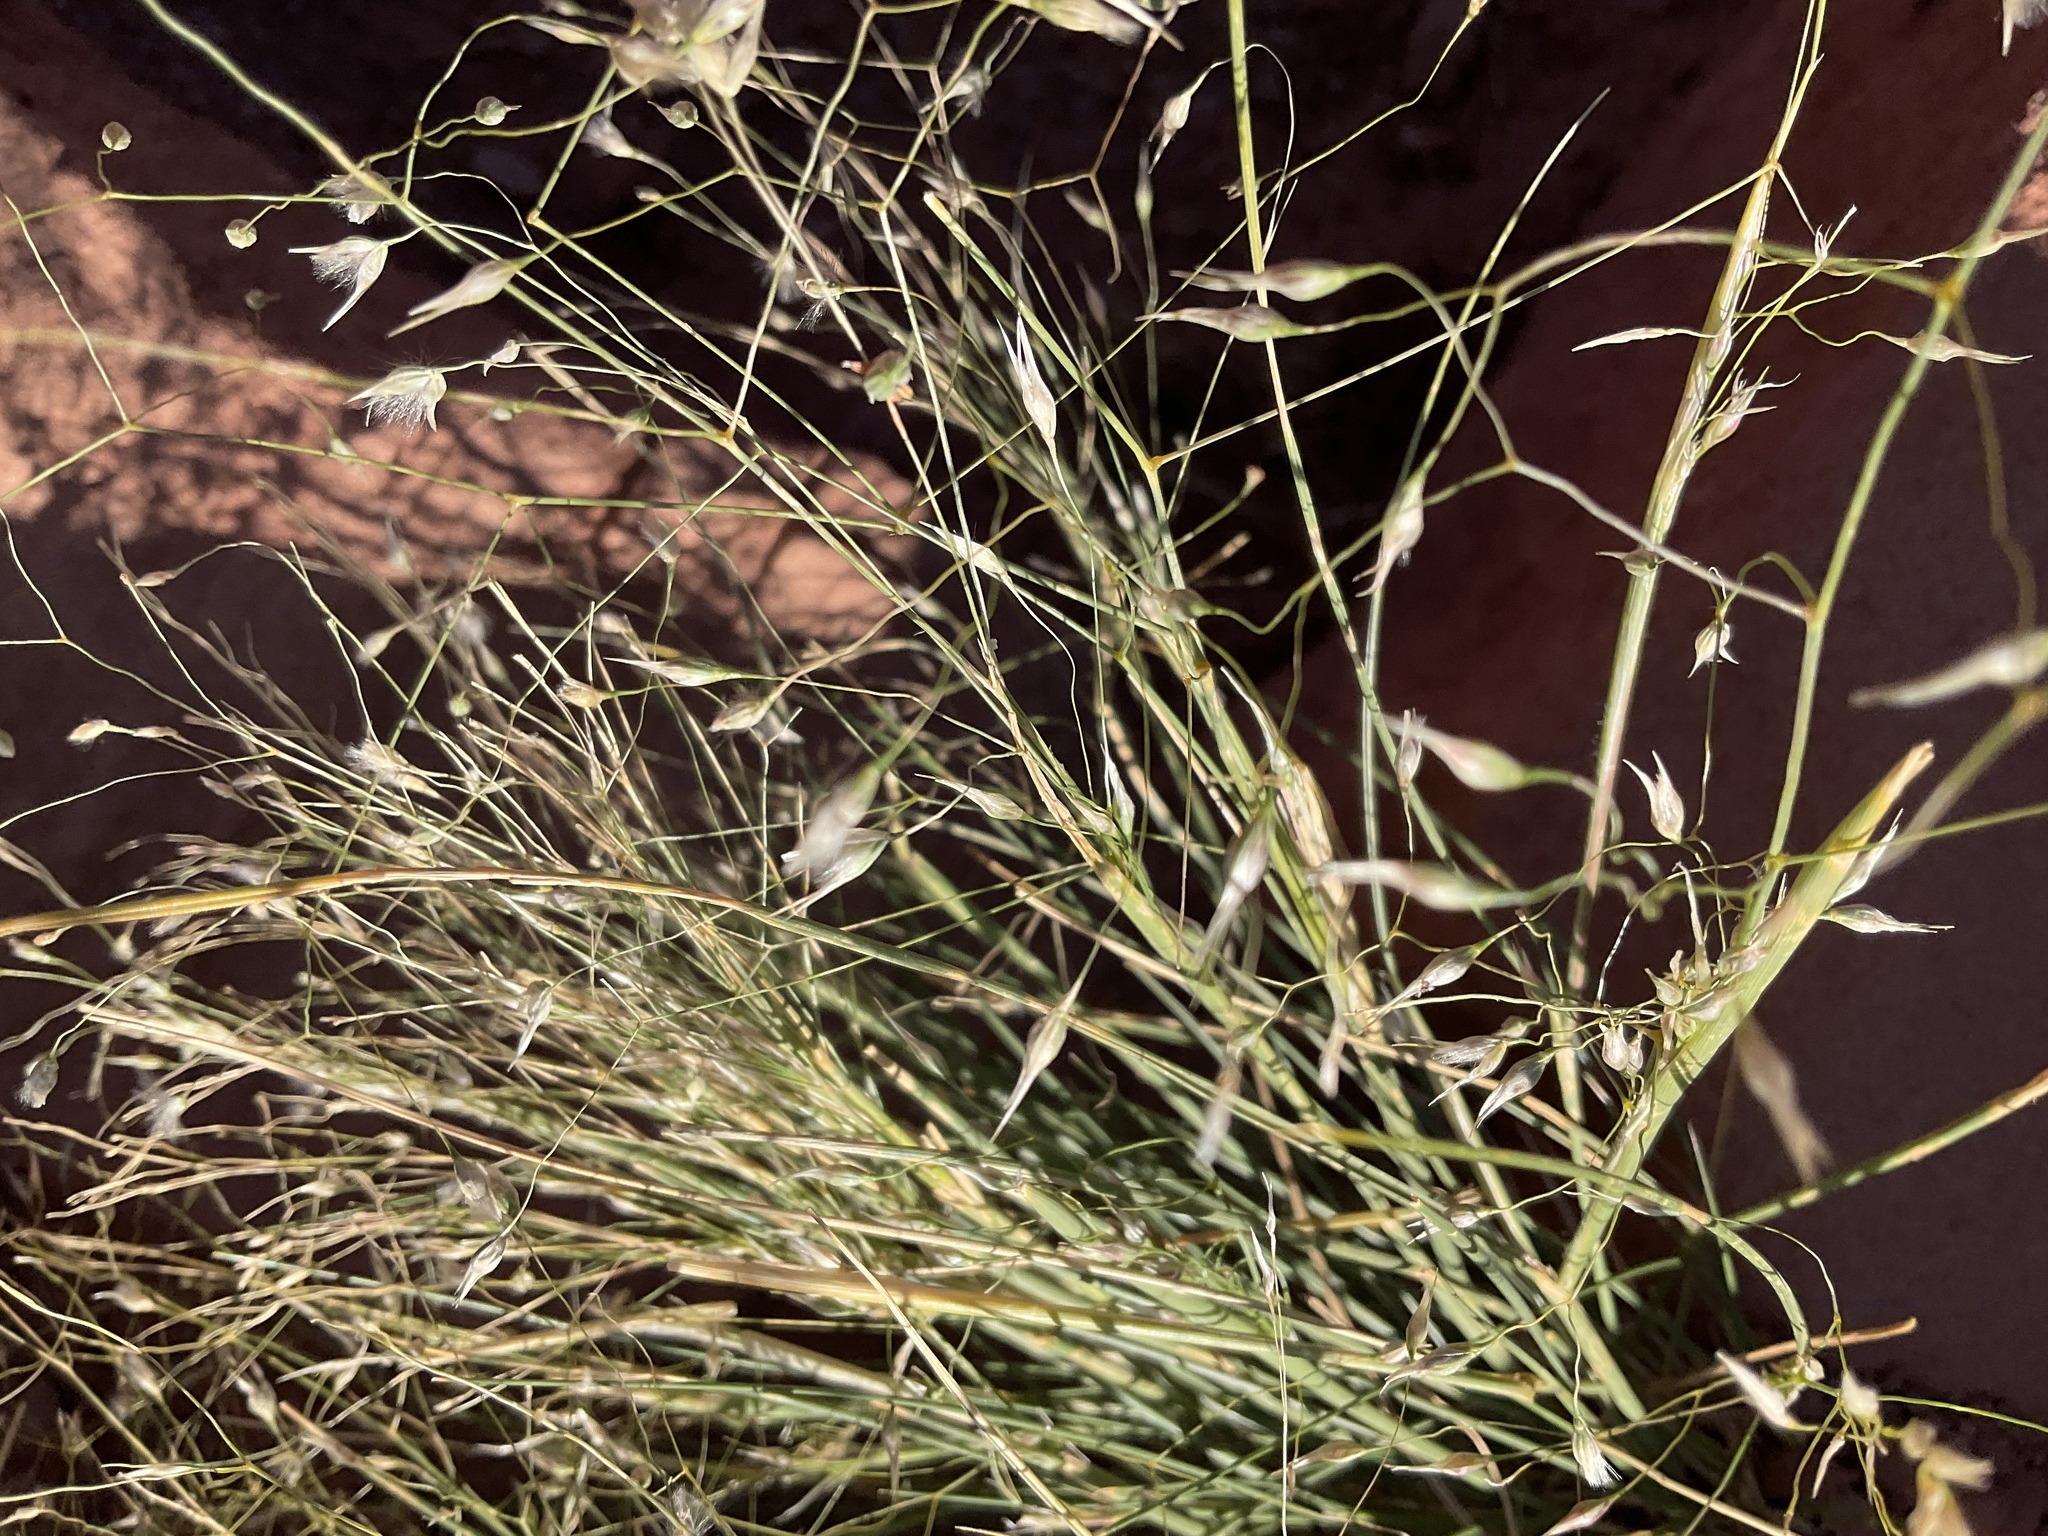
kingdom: Plantae
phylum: Tracheophyta
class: Liliopsida
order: Poales
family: Poaceae
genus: Eriocoma
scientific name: Eriocoma hymenoides
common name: Indian mountain ricegrass
